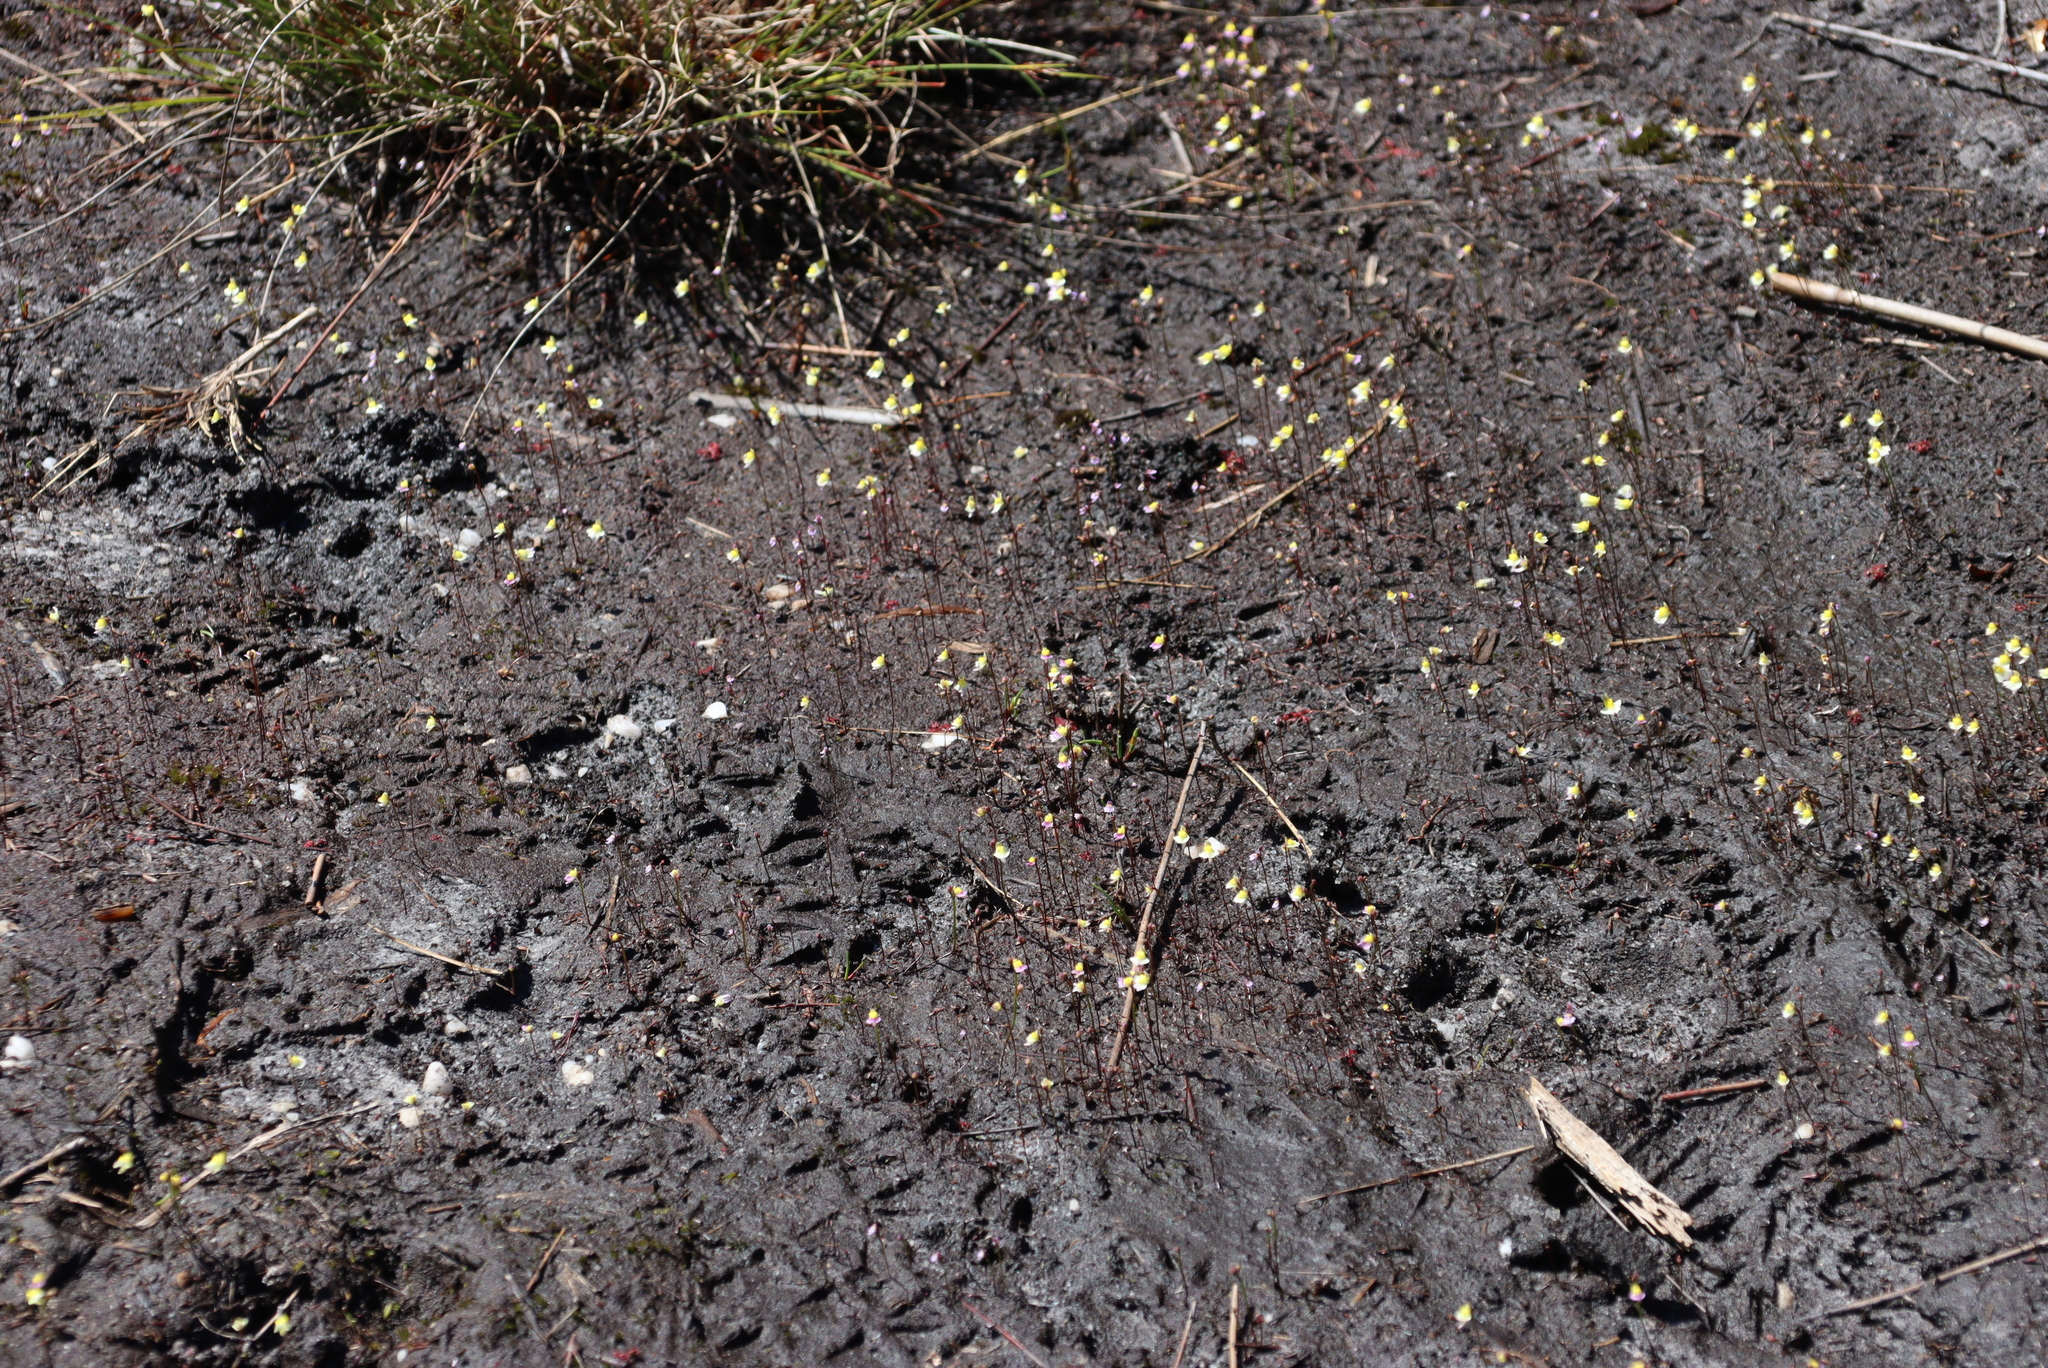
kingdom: Plantae
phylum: Tracheophyta
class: Magnoliopsida
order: Lamiales
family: Lentibulariaceae
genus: Utricularia
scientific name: Utricularia bisquamata
